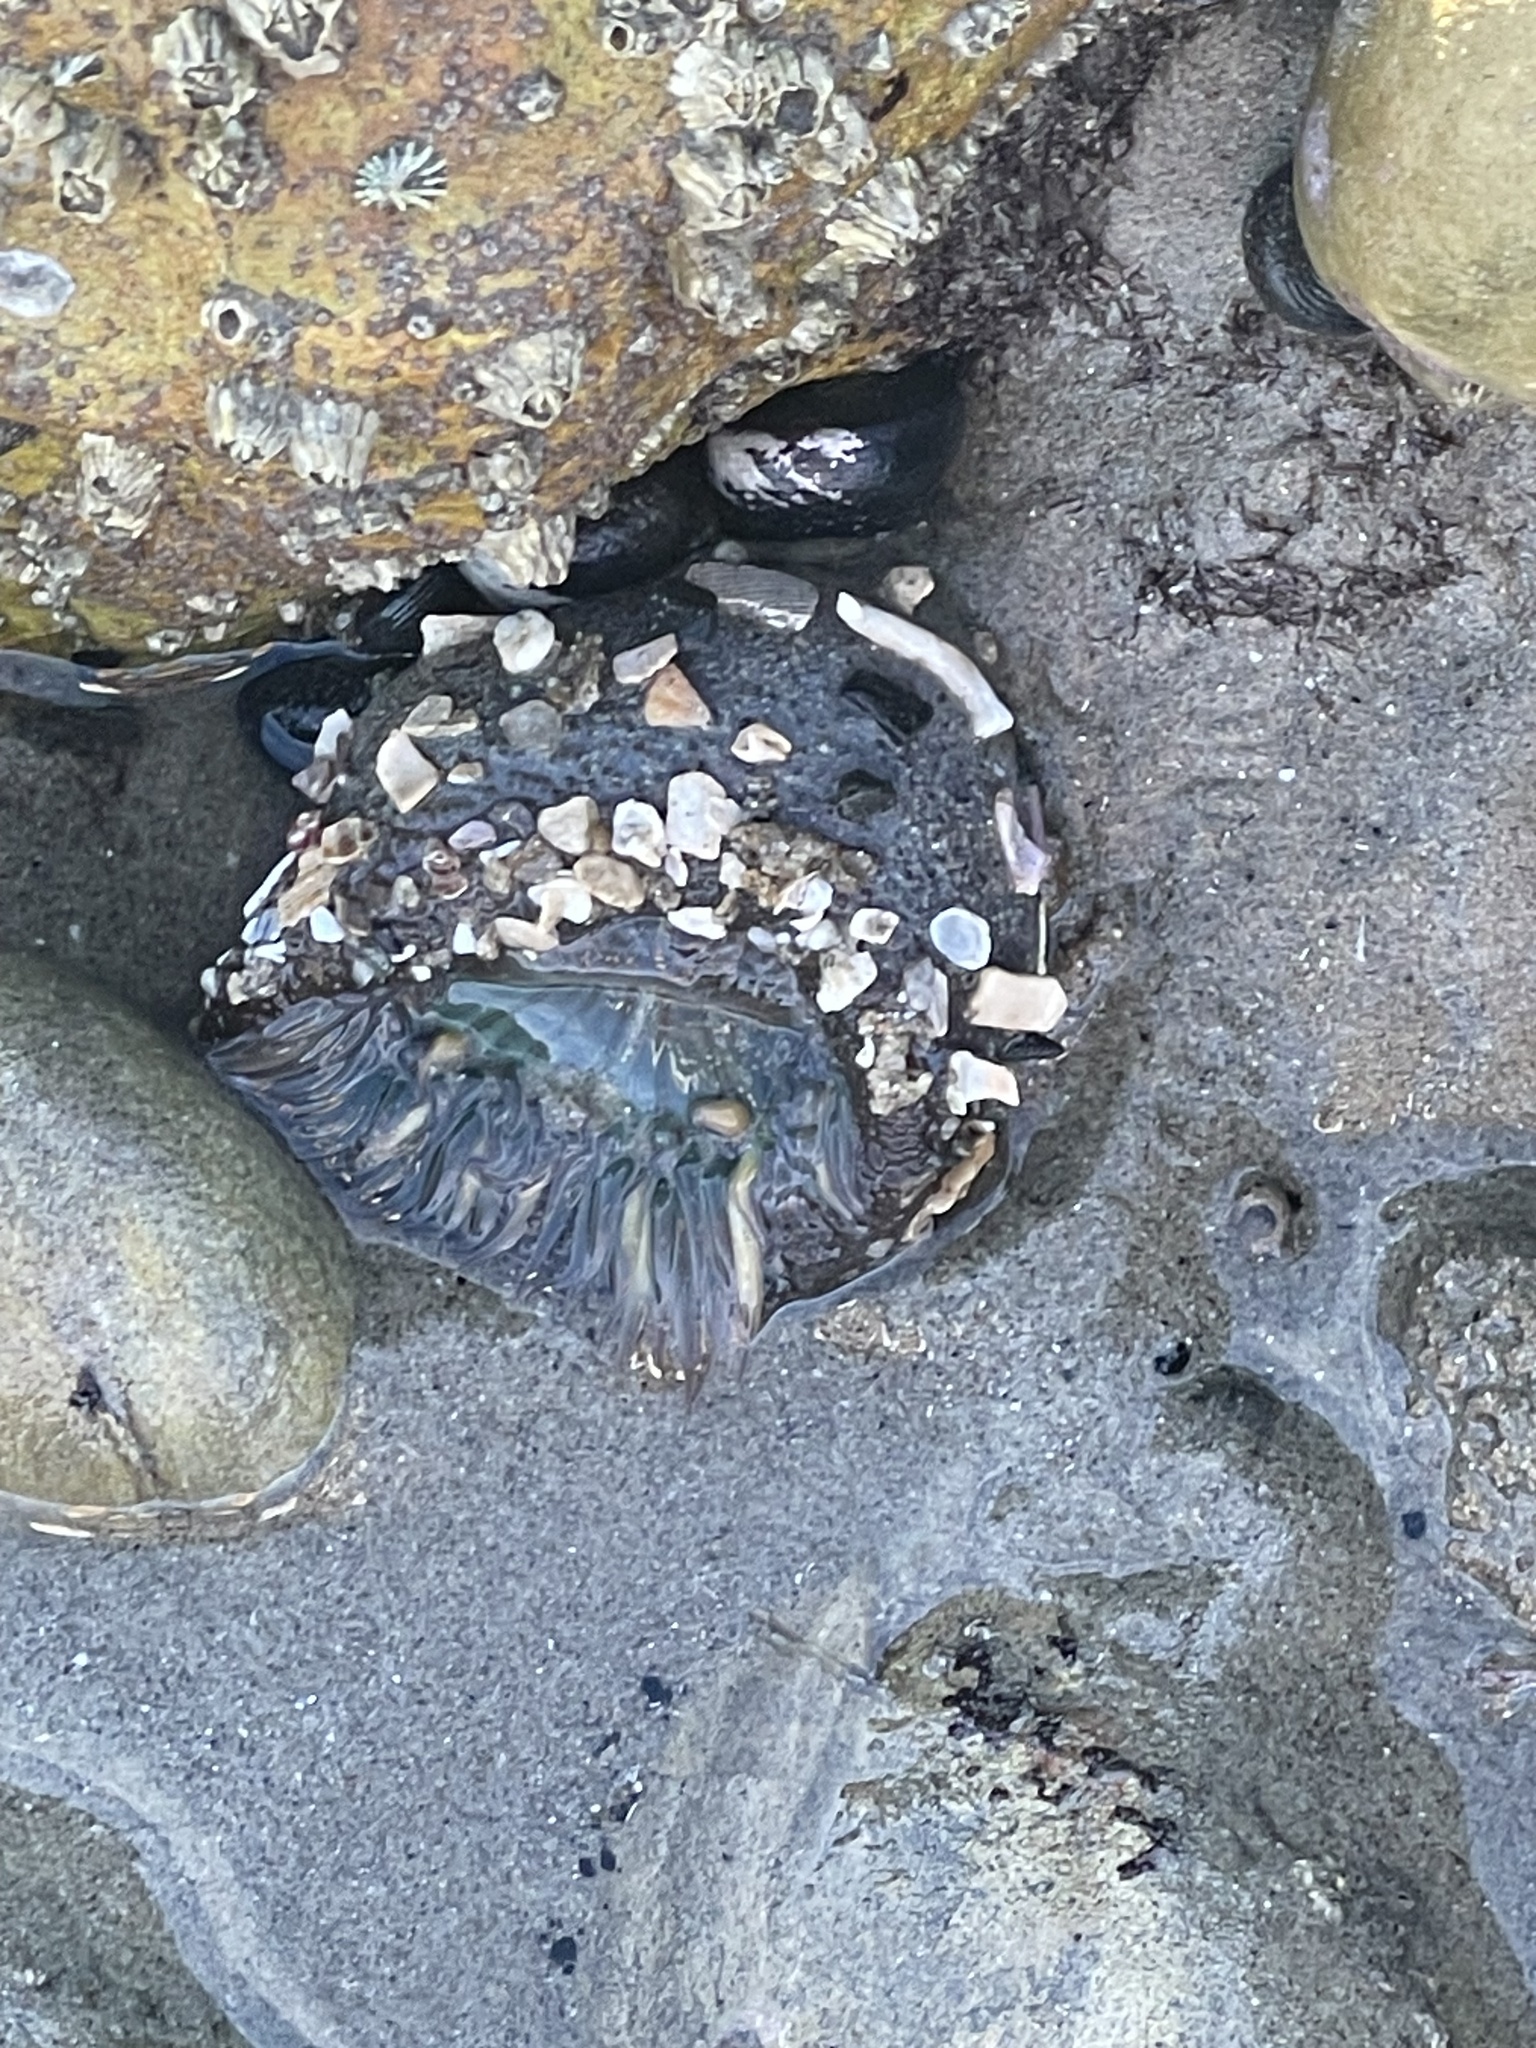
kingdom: Animalia
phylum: Cnidaria
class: Anthozoa
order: Actiniaria
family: Actiniidae
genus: Anthopleura
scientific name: Anthopleura sola
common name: Sun anemone
